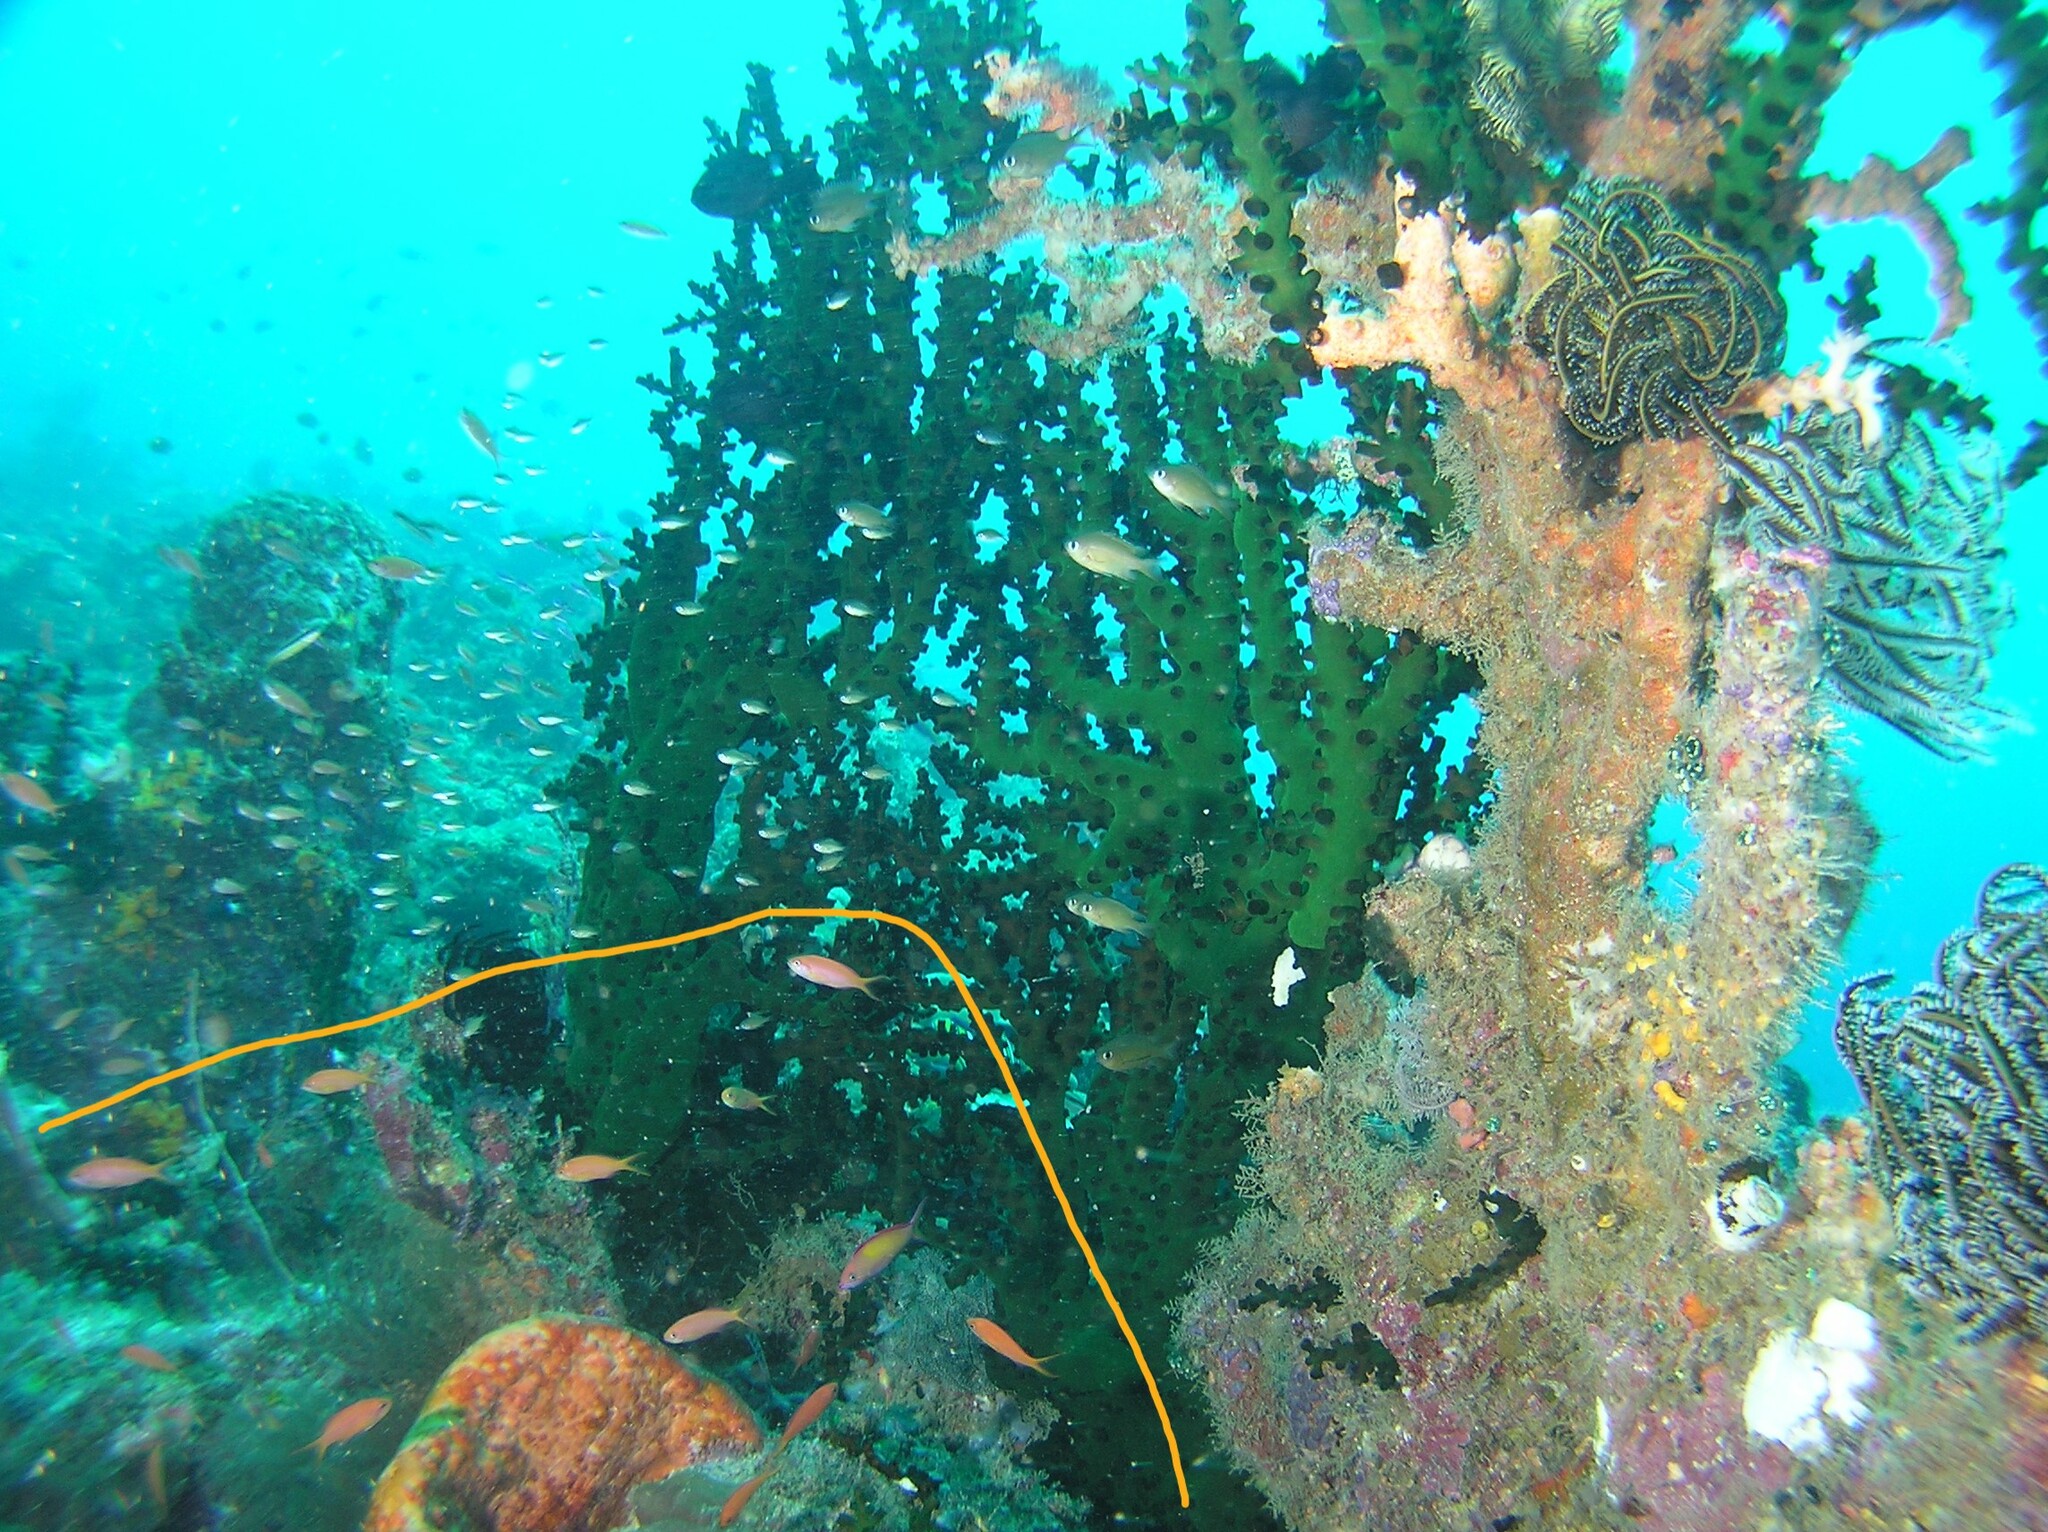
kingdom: Animalia
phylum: Chordata
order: Perciformes
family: Serranidae
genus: Nemanthias
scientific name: Nemanthias
